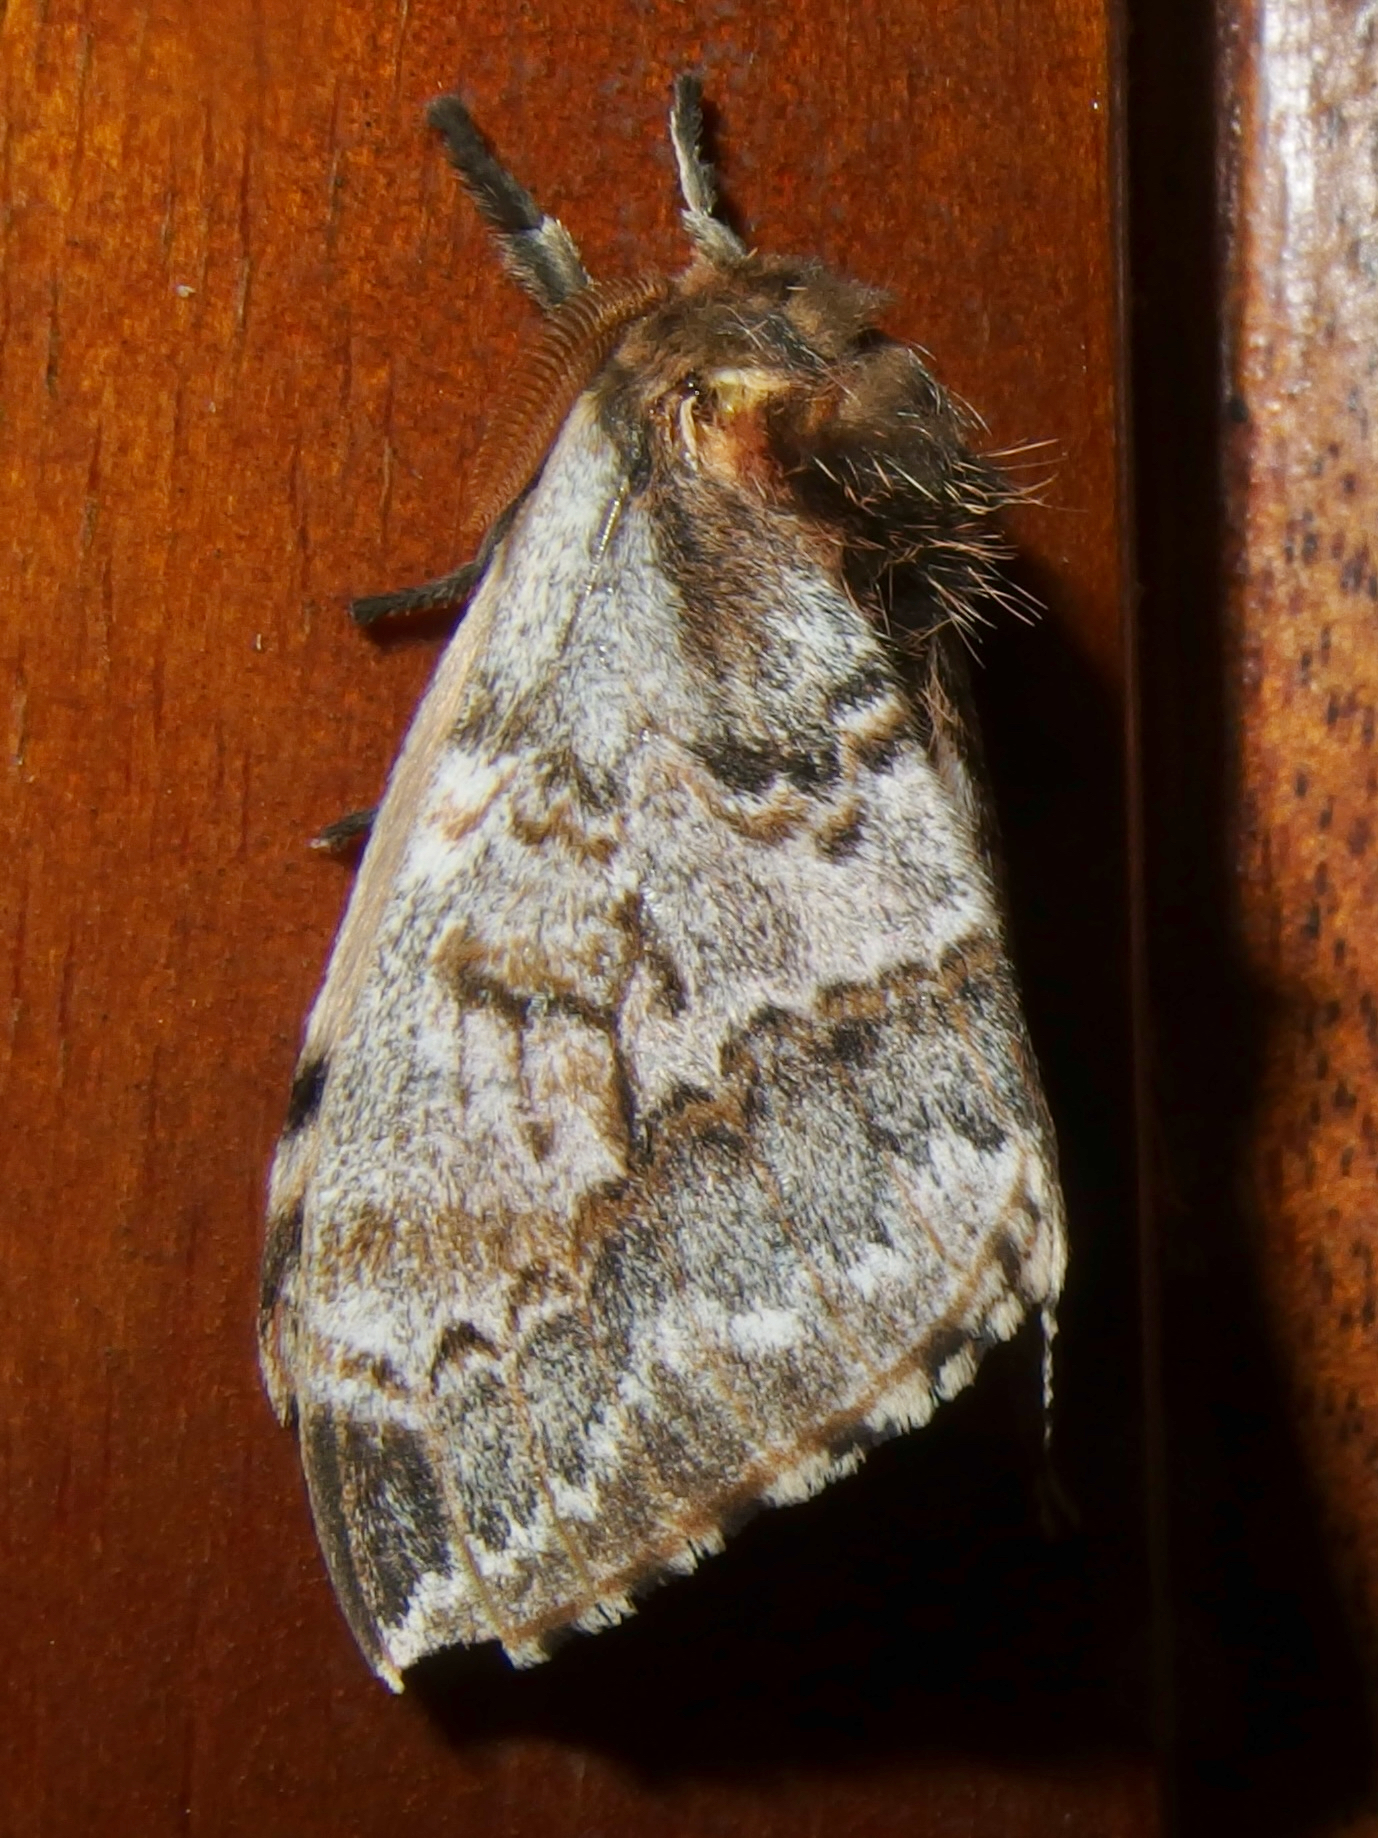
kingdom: Animalia
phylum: Arthropoda
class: Insecta
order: Lepidoptera
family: Saturniidae
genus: Molippa
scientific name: Molippa wittmeri
